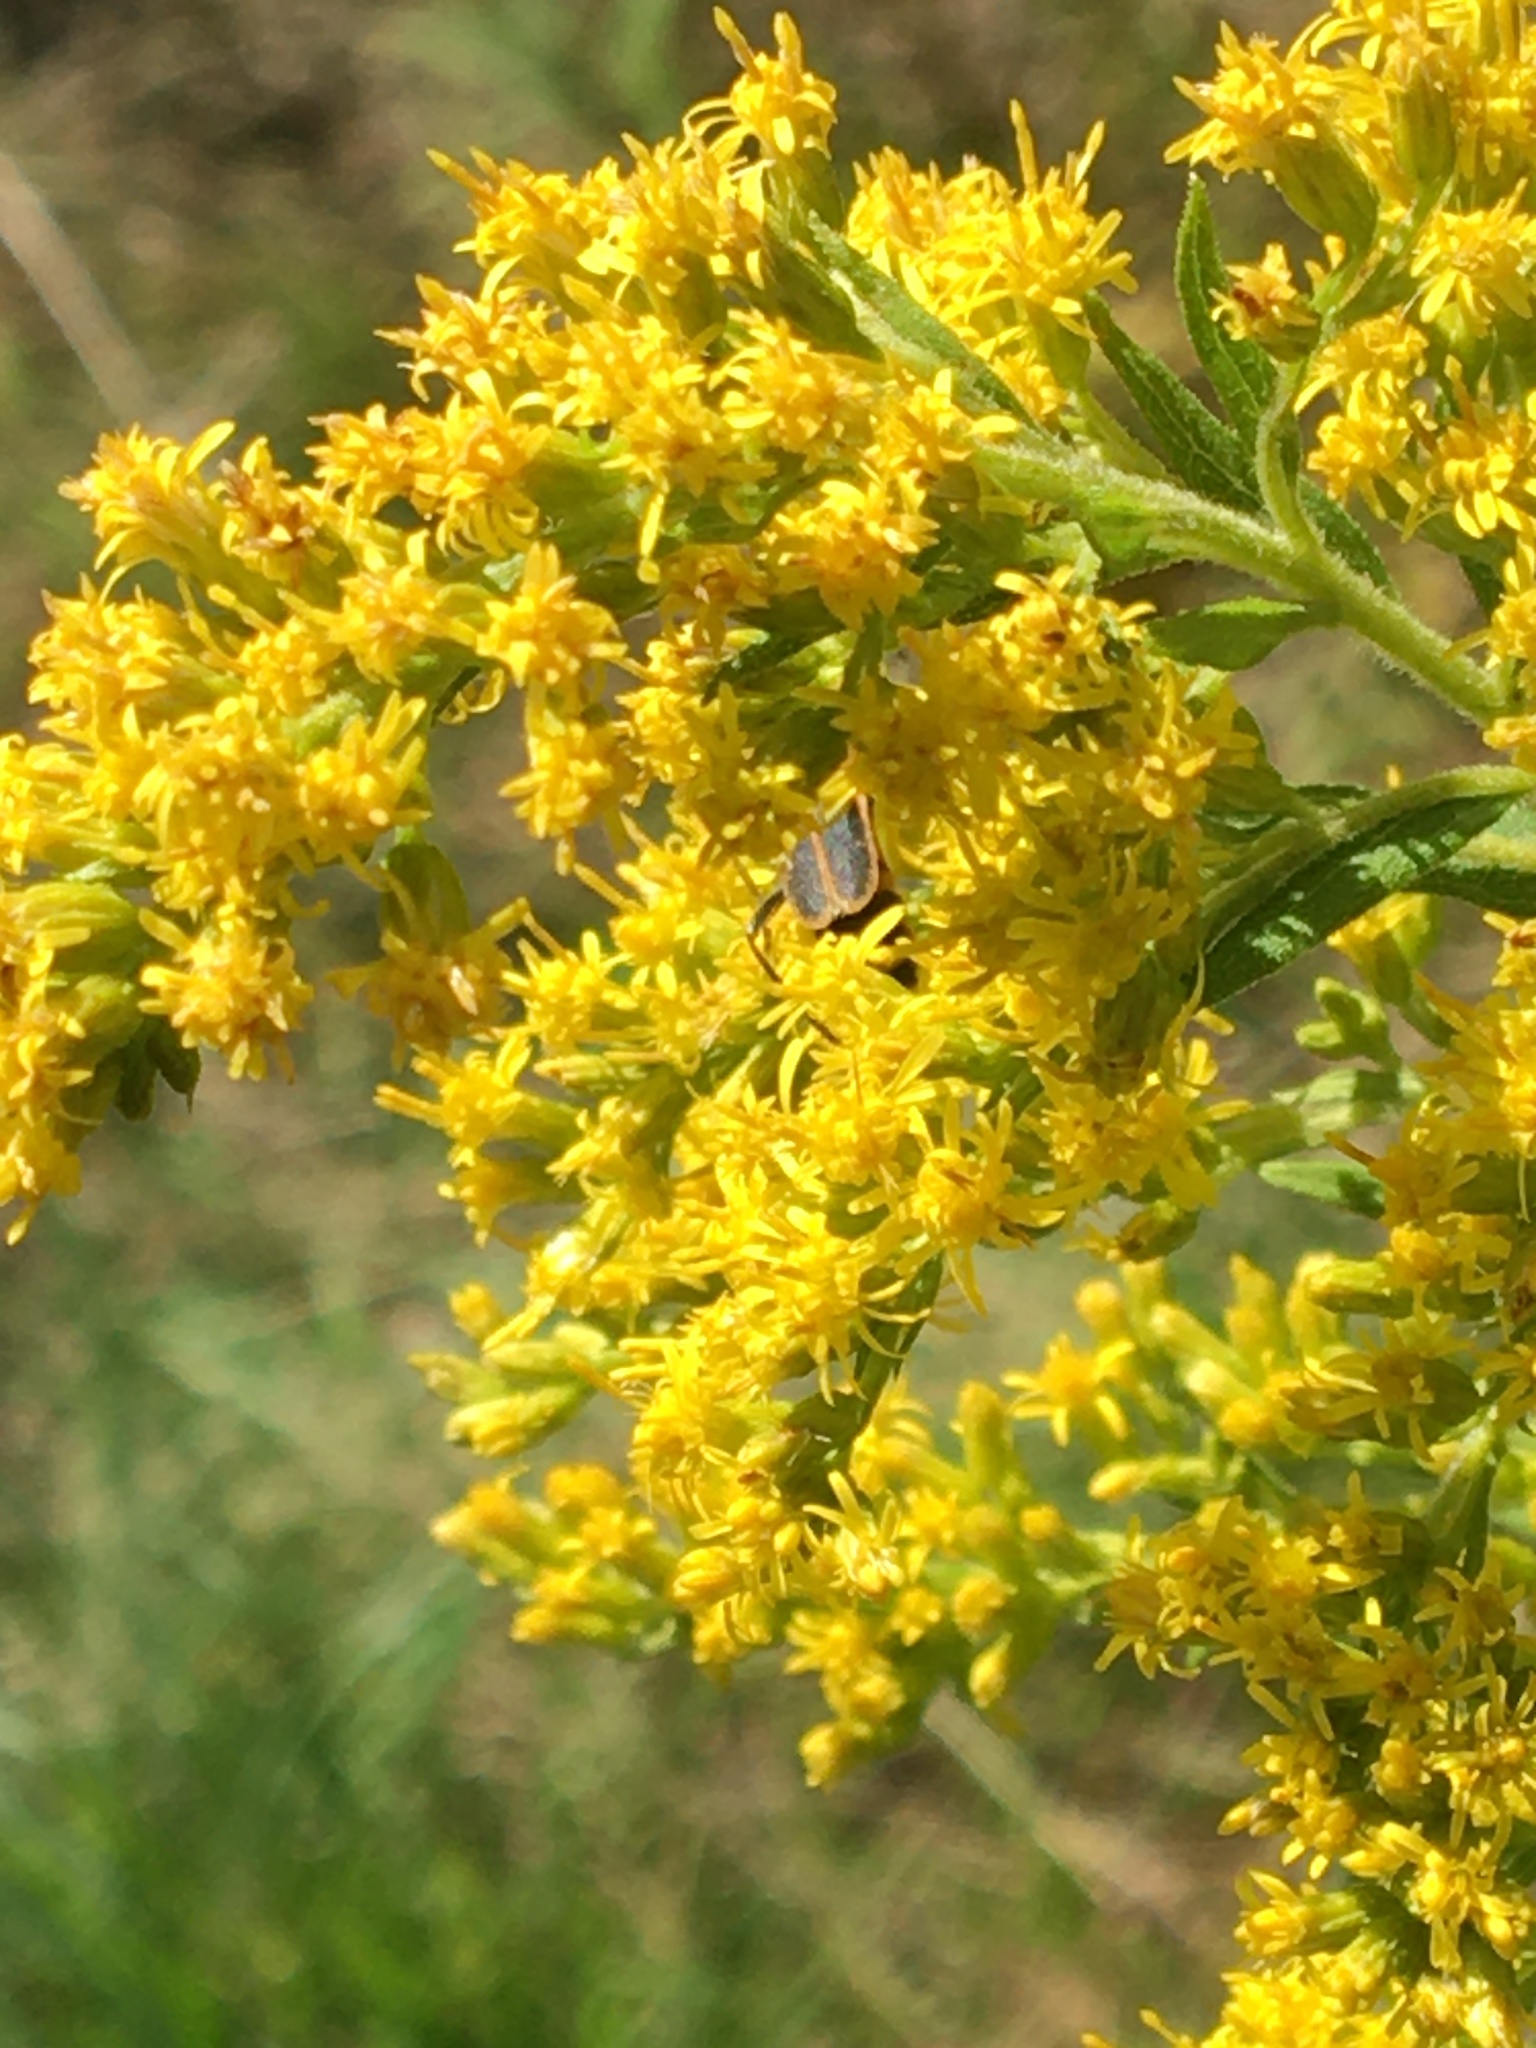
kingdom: Animalia
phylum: Arthropoda
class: Insecta
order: Coleoptera
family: Cantharidae
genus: Chauliognathus
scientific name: Chauliognathus pensylvanicus
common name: Goldenrod soldier beetle
